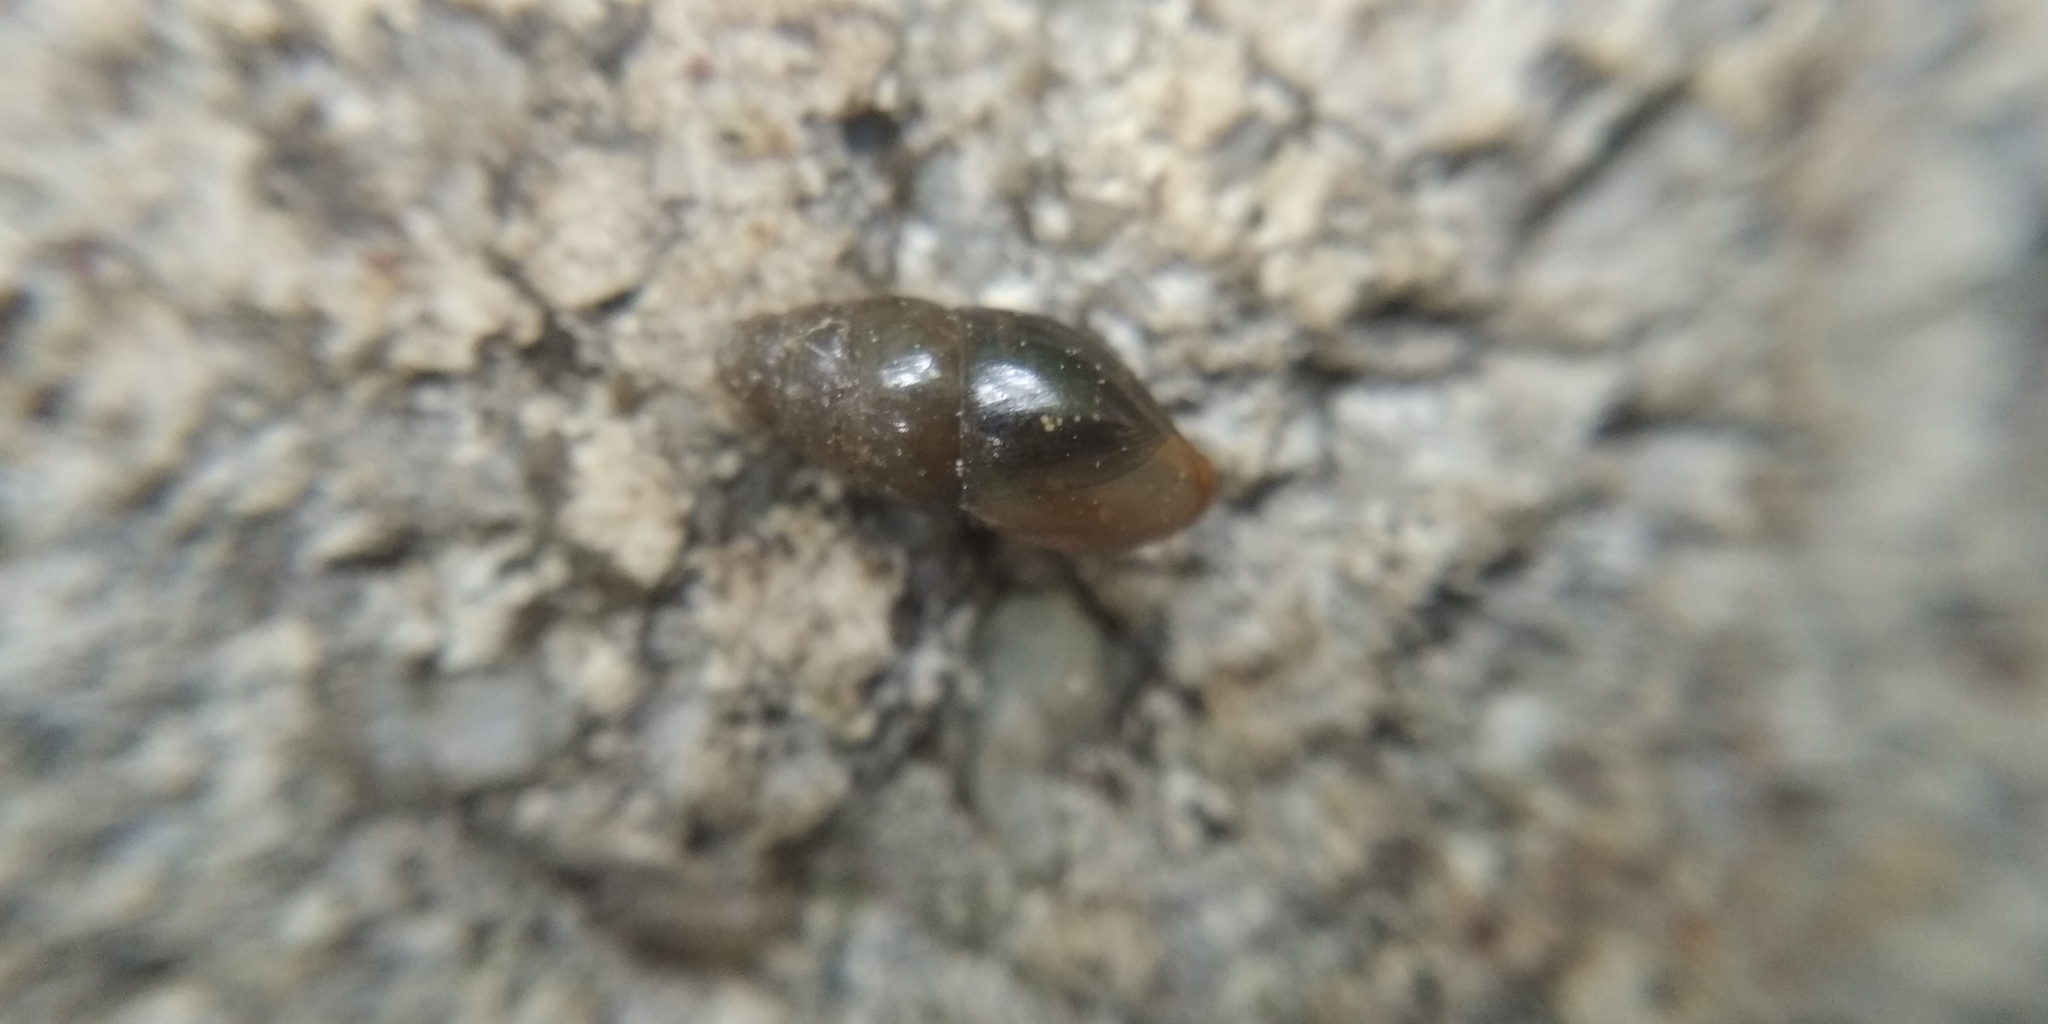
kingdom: Animalia
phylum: Mollusca
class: Gastropoda
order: Stylommatophora
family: Cochlicopidae
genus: Cochlicopa
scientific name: Cochlicopa lubrica
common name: Glossy pillar snail
